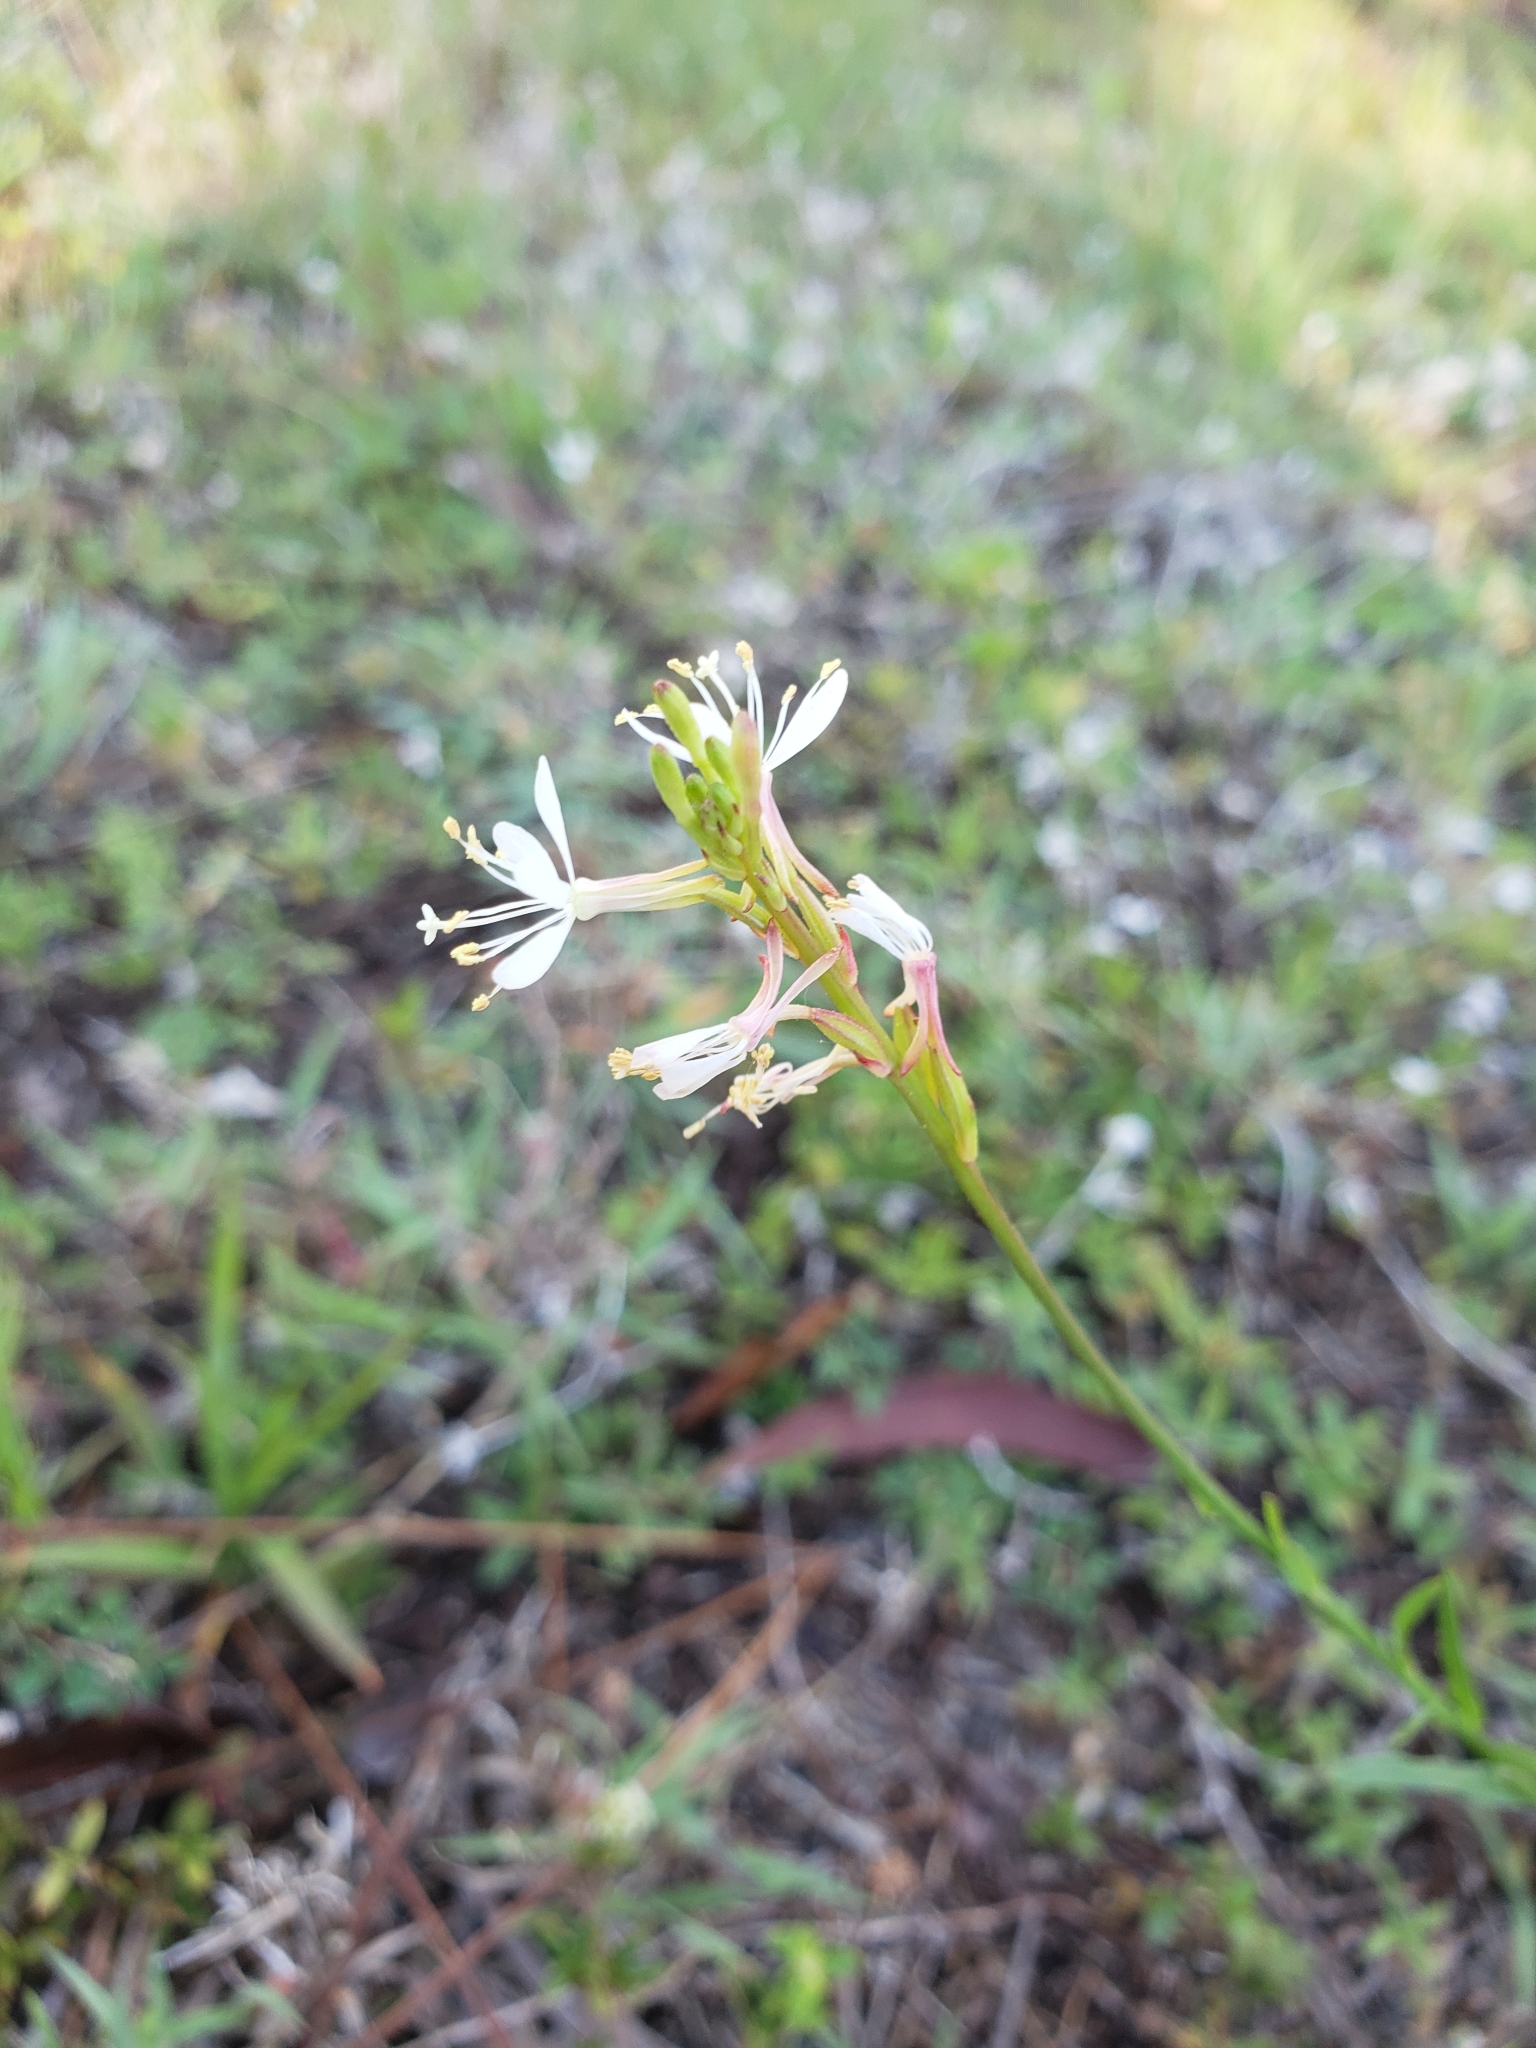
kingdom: Plantae
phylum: Tracheophyta
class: Magnoliopsida
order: Myrtales
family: Onagraceae
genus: Oenothera
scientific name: Oenothera simulans
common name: Southern beeblossom
